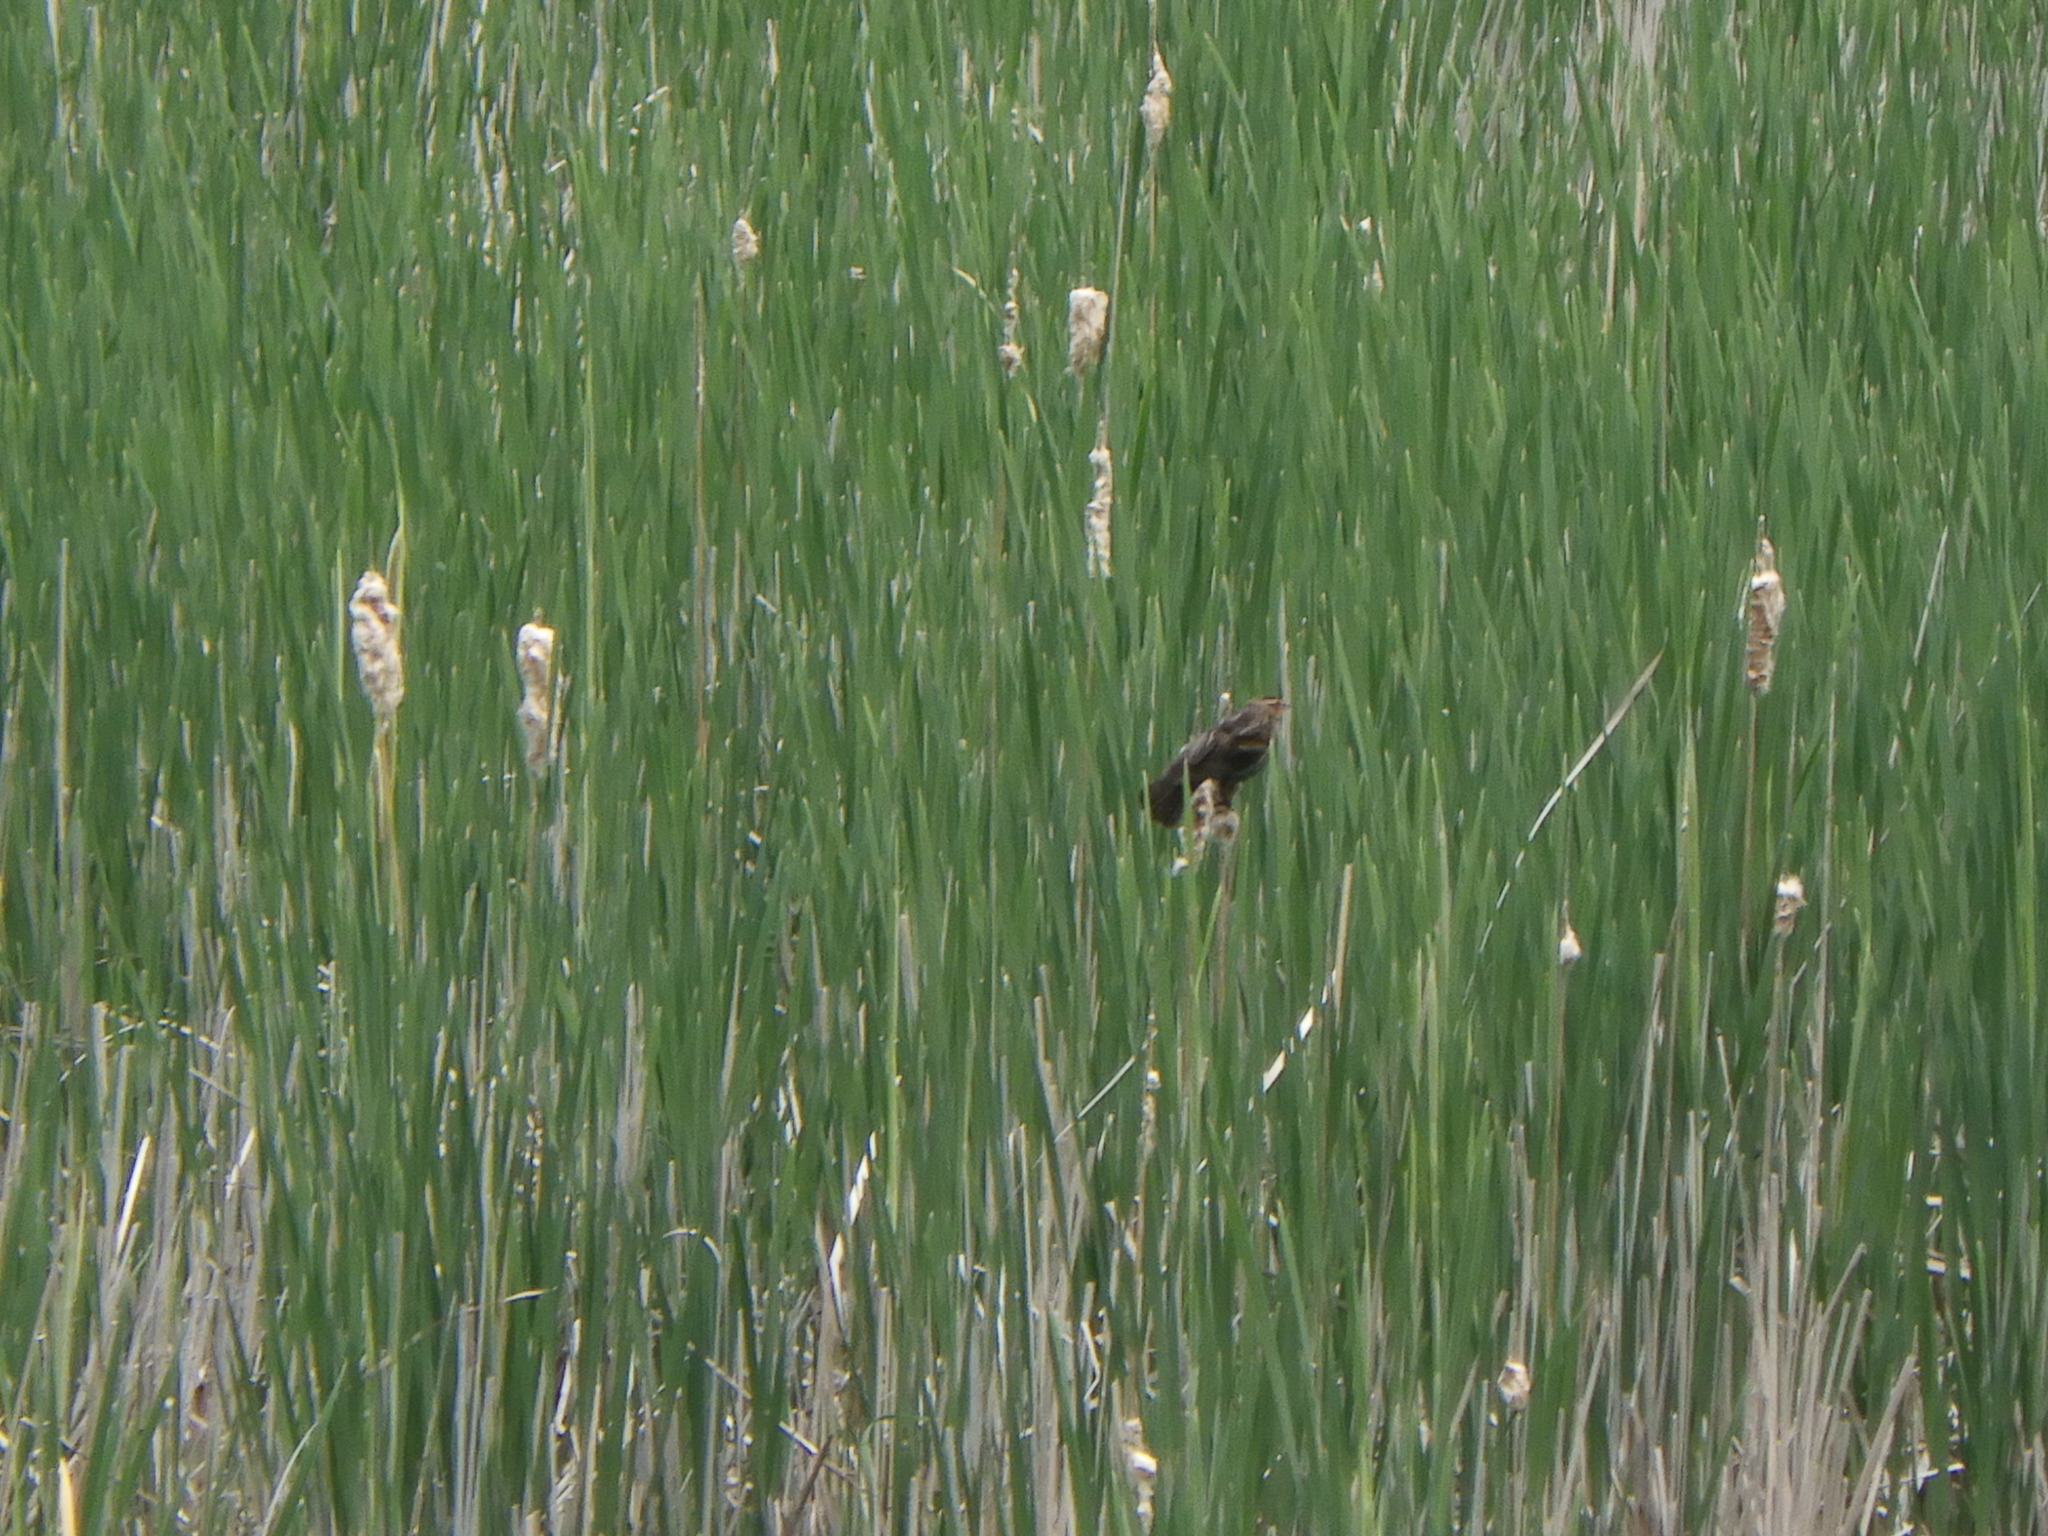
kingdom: Animalia
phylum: Chordata
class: Aves
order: Passeriformes
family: Icteridae
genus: Agelaius
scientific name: Agelaius phoeniceus
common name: Red-winged blackbird
